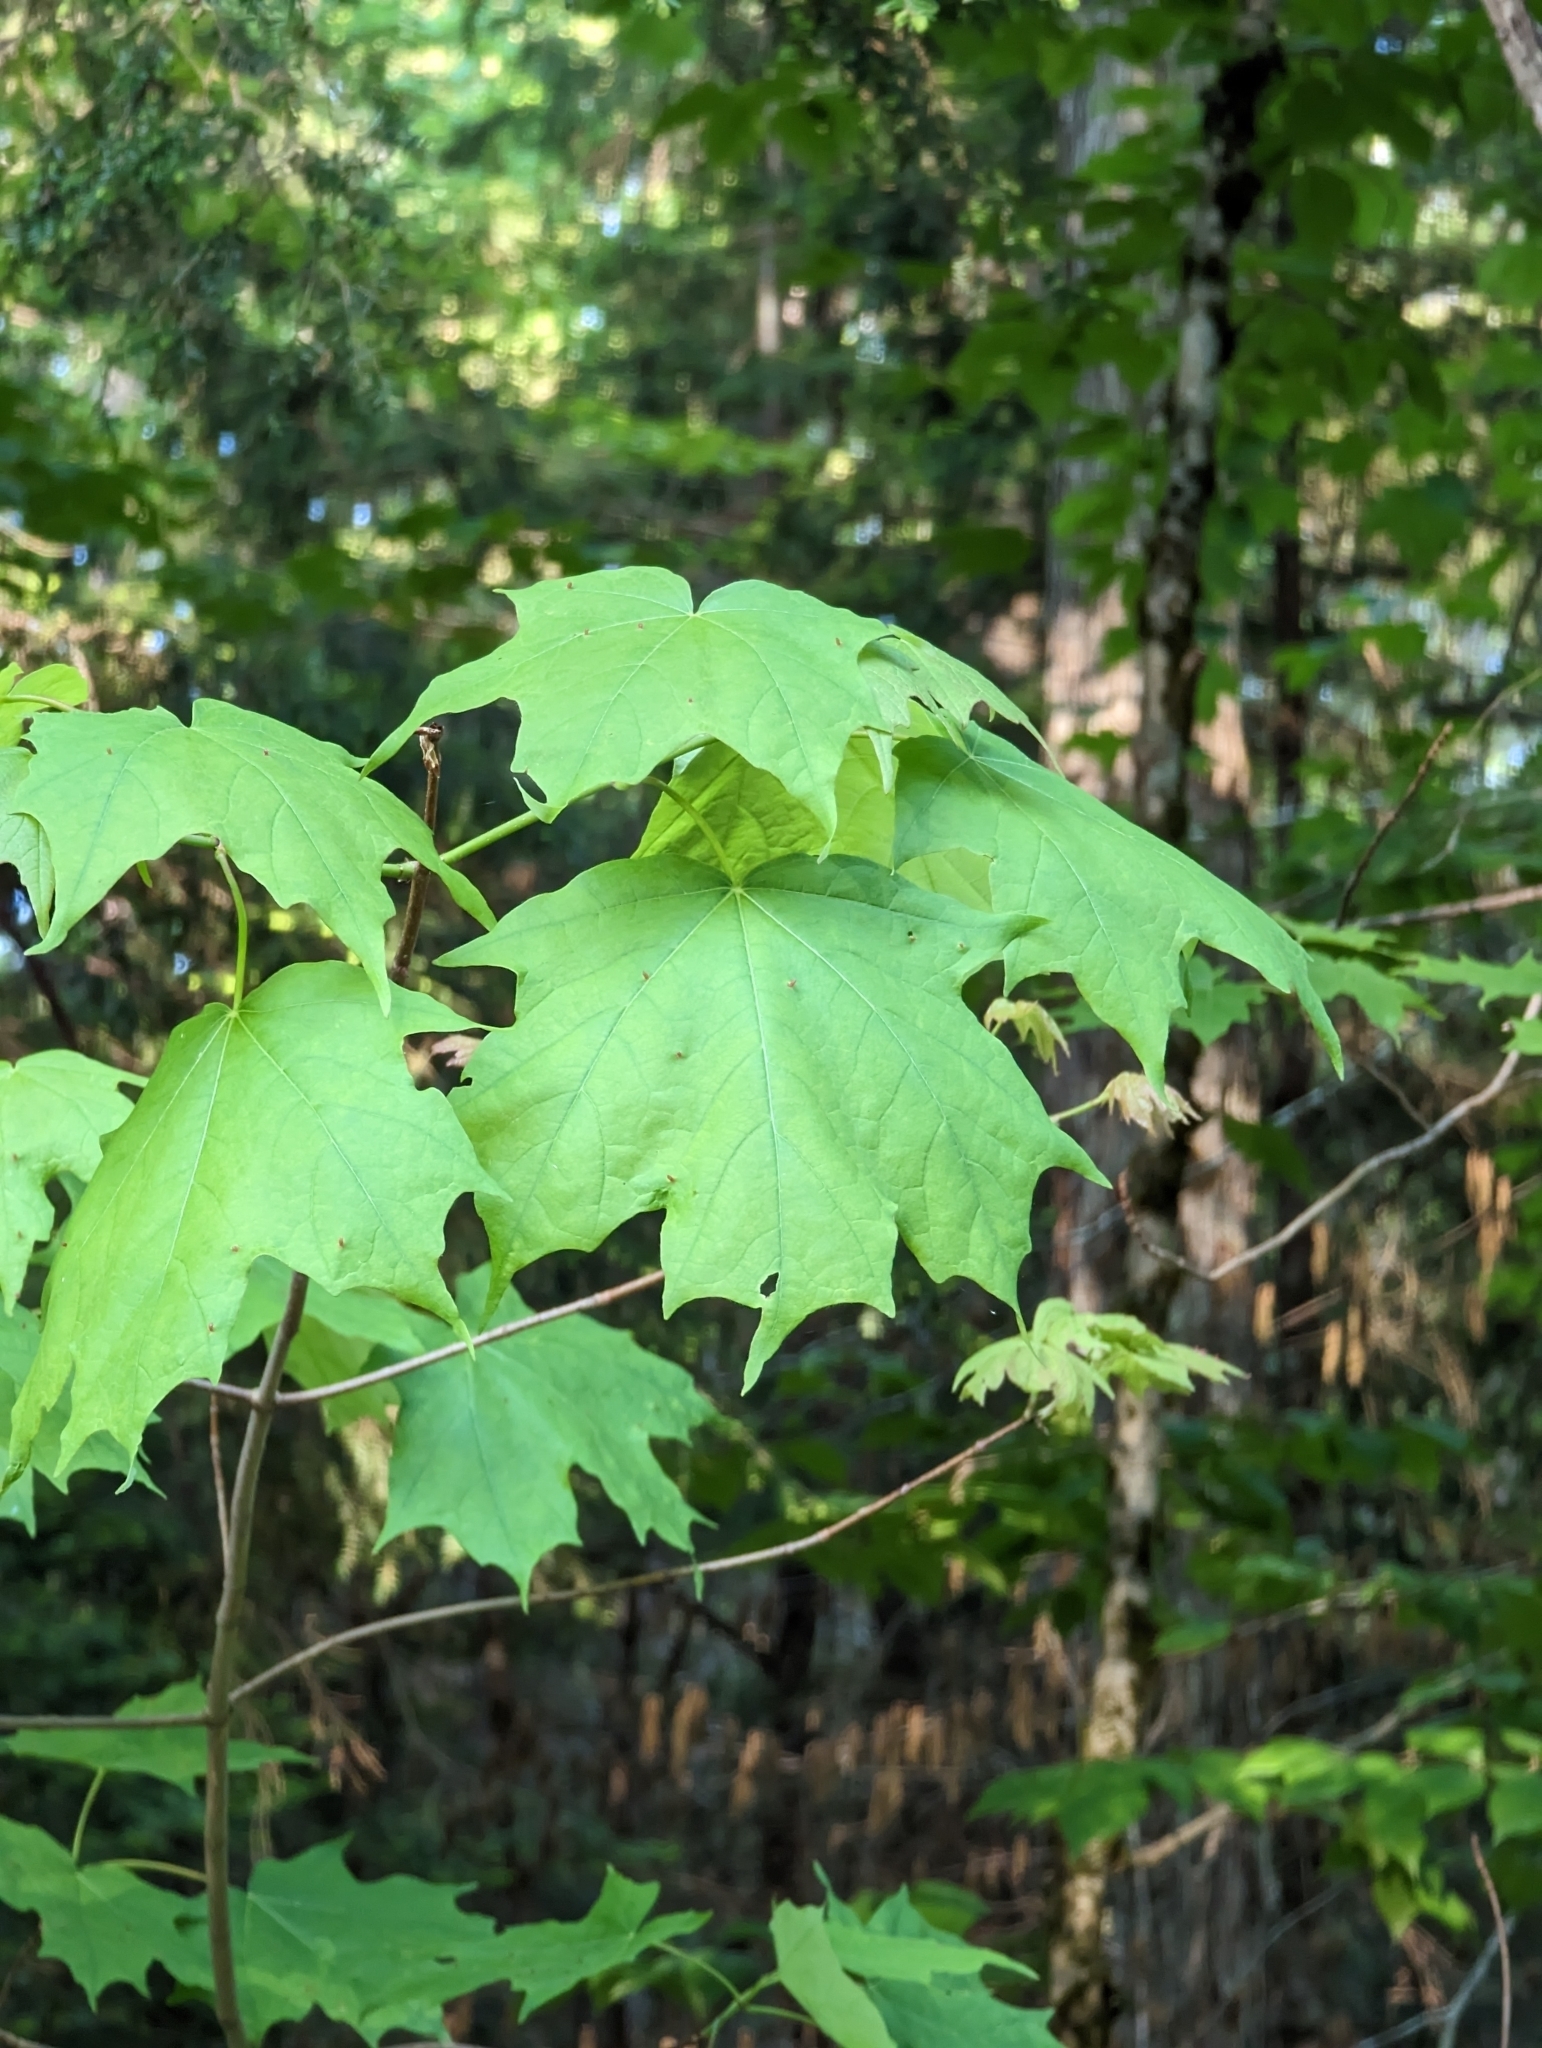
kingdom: Animalia
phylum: Arthropoda
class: Arachnida
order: Trombidiformes
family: Eriophyidae
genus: Vasates
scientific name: Vasates aceriscrumena
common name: Maple spindle gall mite
